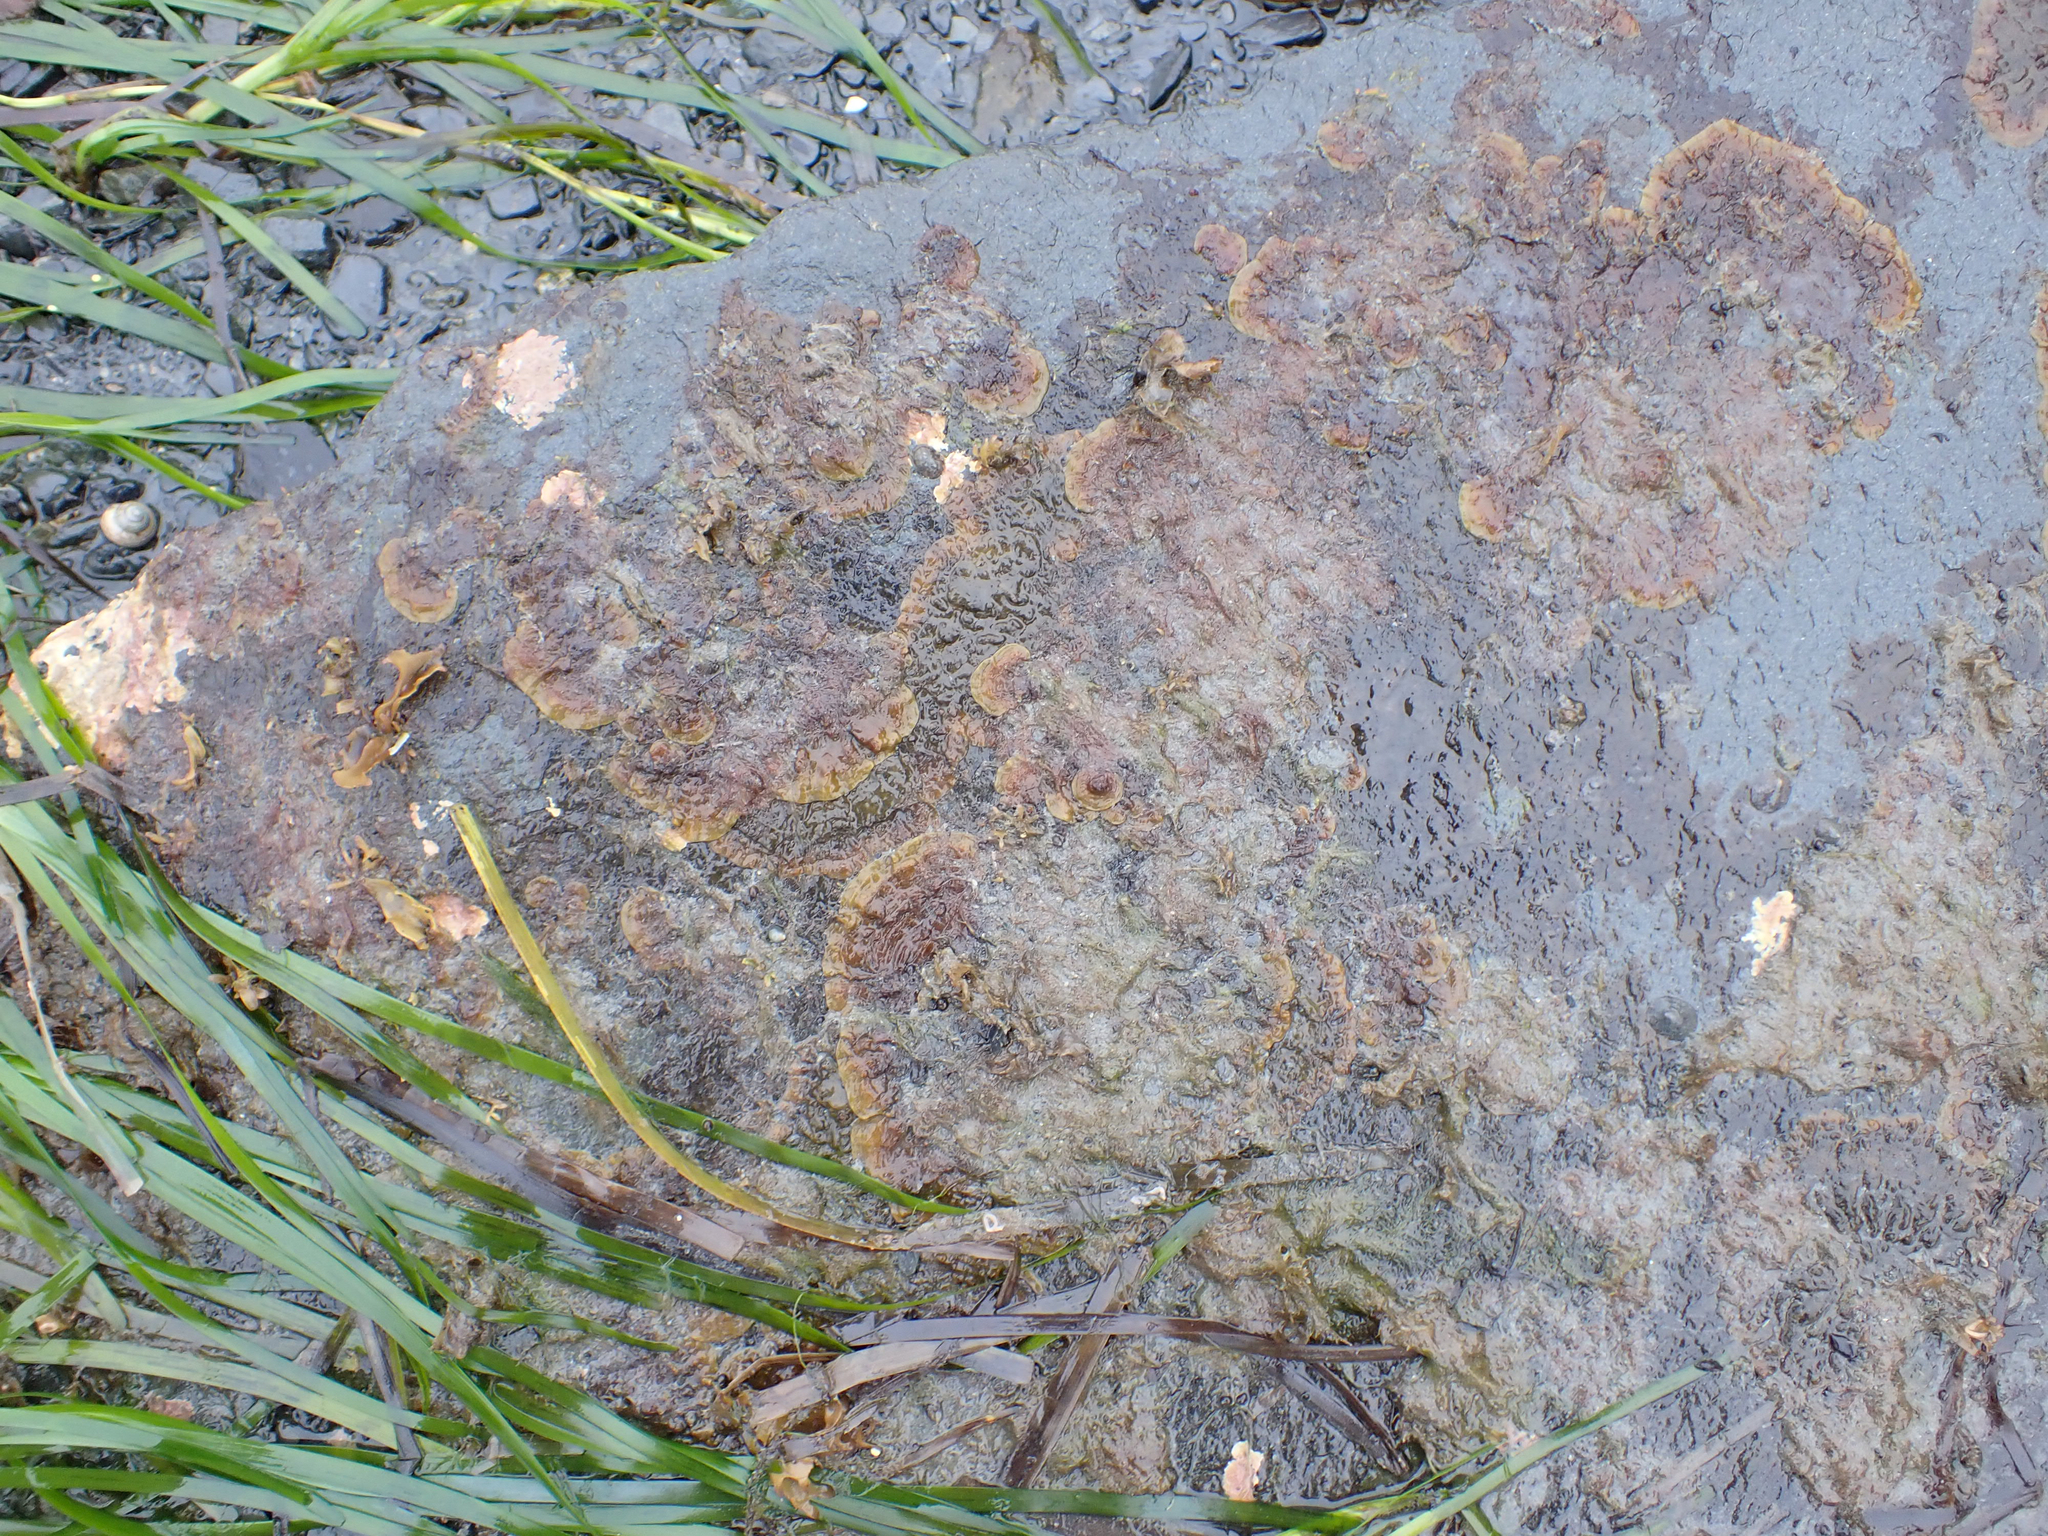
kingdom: Chromista
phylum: Ochrophyta
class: Phaeophyceae
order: Ralfsiales
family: Ralfsiaceae
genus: Ralfsia
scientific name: Ralfsia fungiformis
